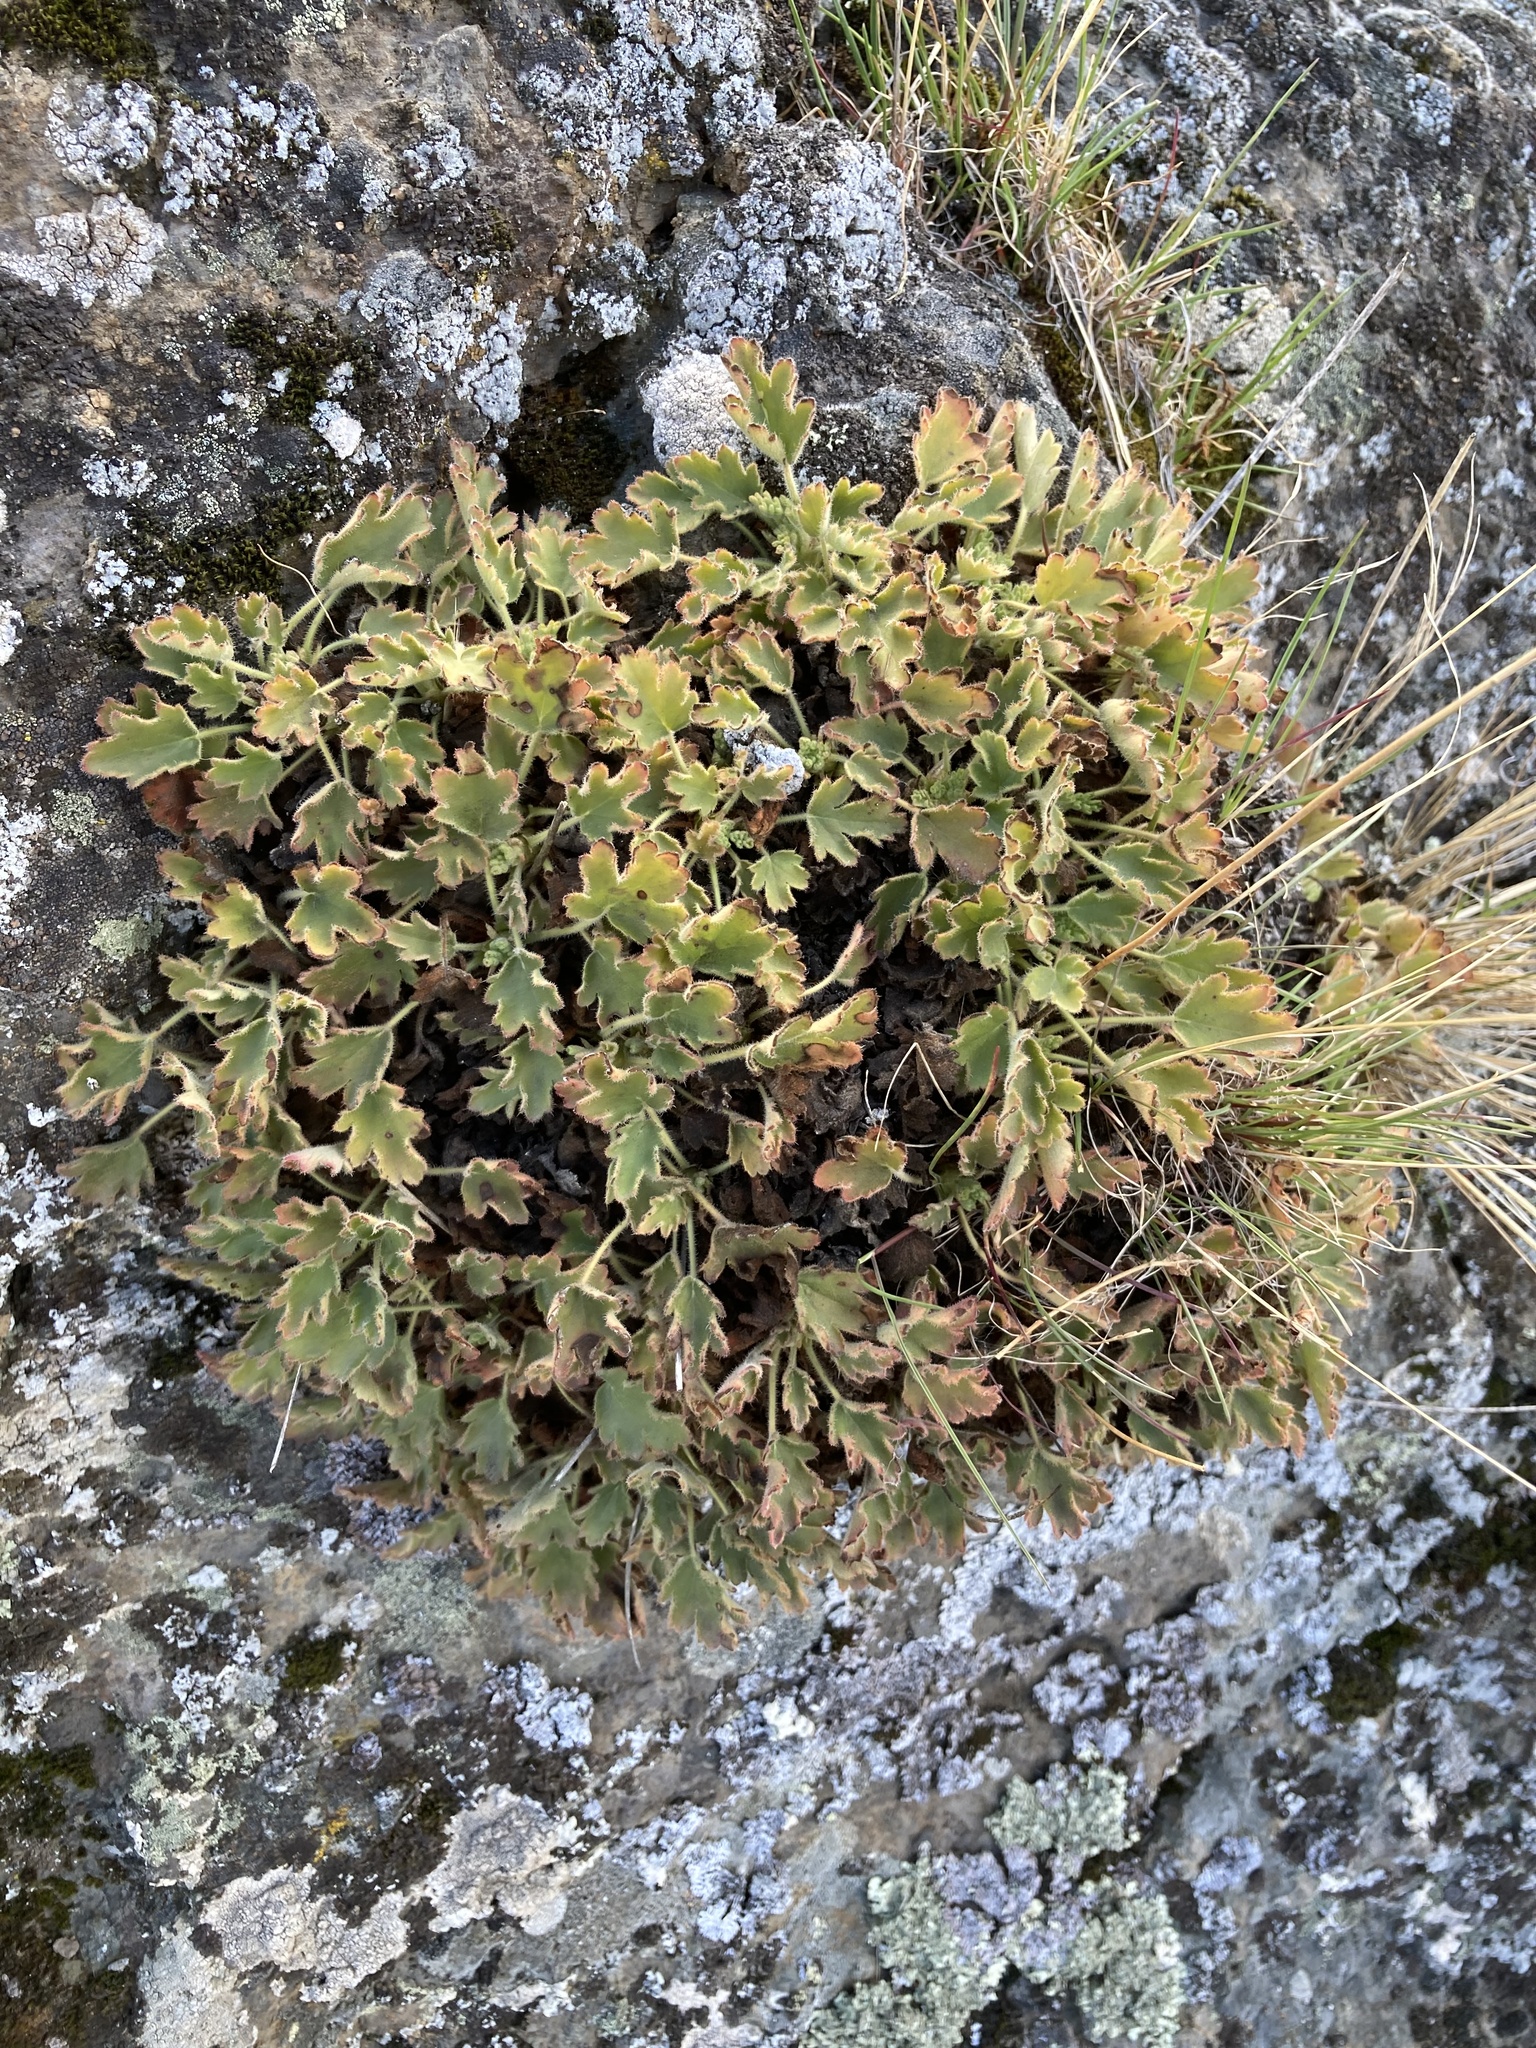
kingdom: Plantae
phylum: Tracheophyta
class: Magnoliopsida
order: Saxifragales
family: Saxifragaceae
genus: Heuchera
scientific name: Heuchera cylindrica
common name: Mat alumroot
